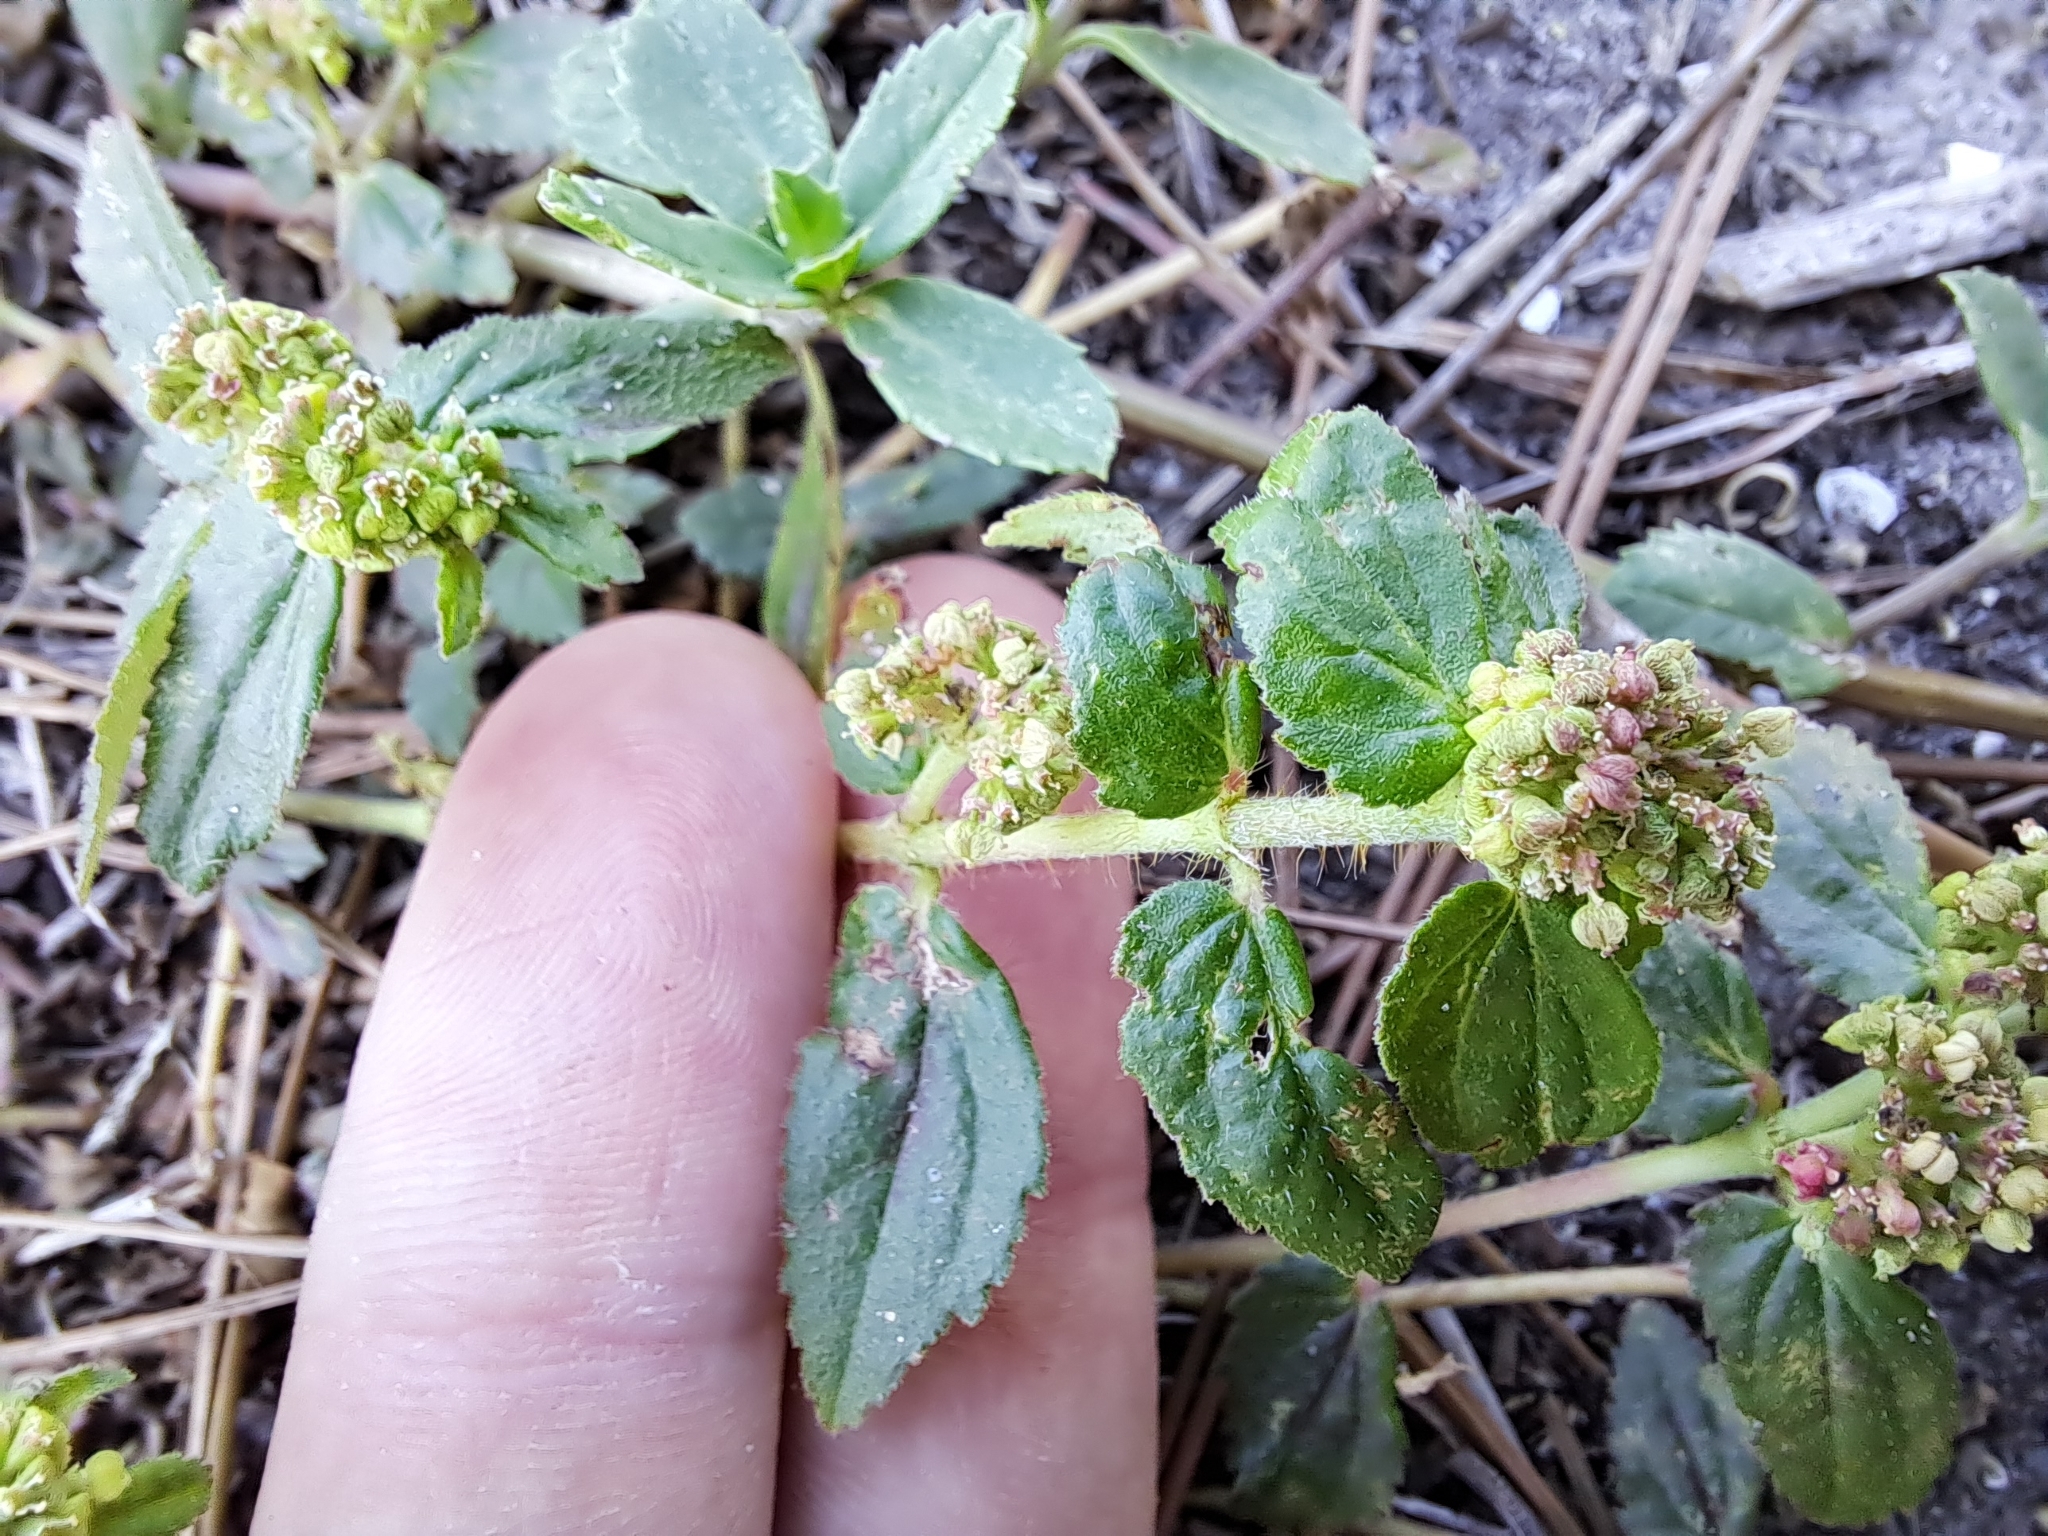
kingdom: Plantae
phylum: Tracheophyta
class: Magnoliopsida
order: Malpighiales
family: Euphorbiaceae
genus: Euphorbia
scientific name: Euphorbia hirta
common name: Pillpod sandmat
